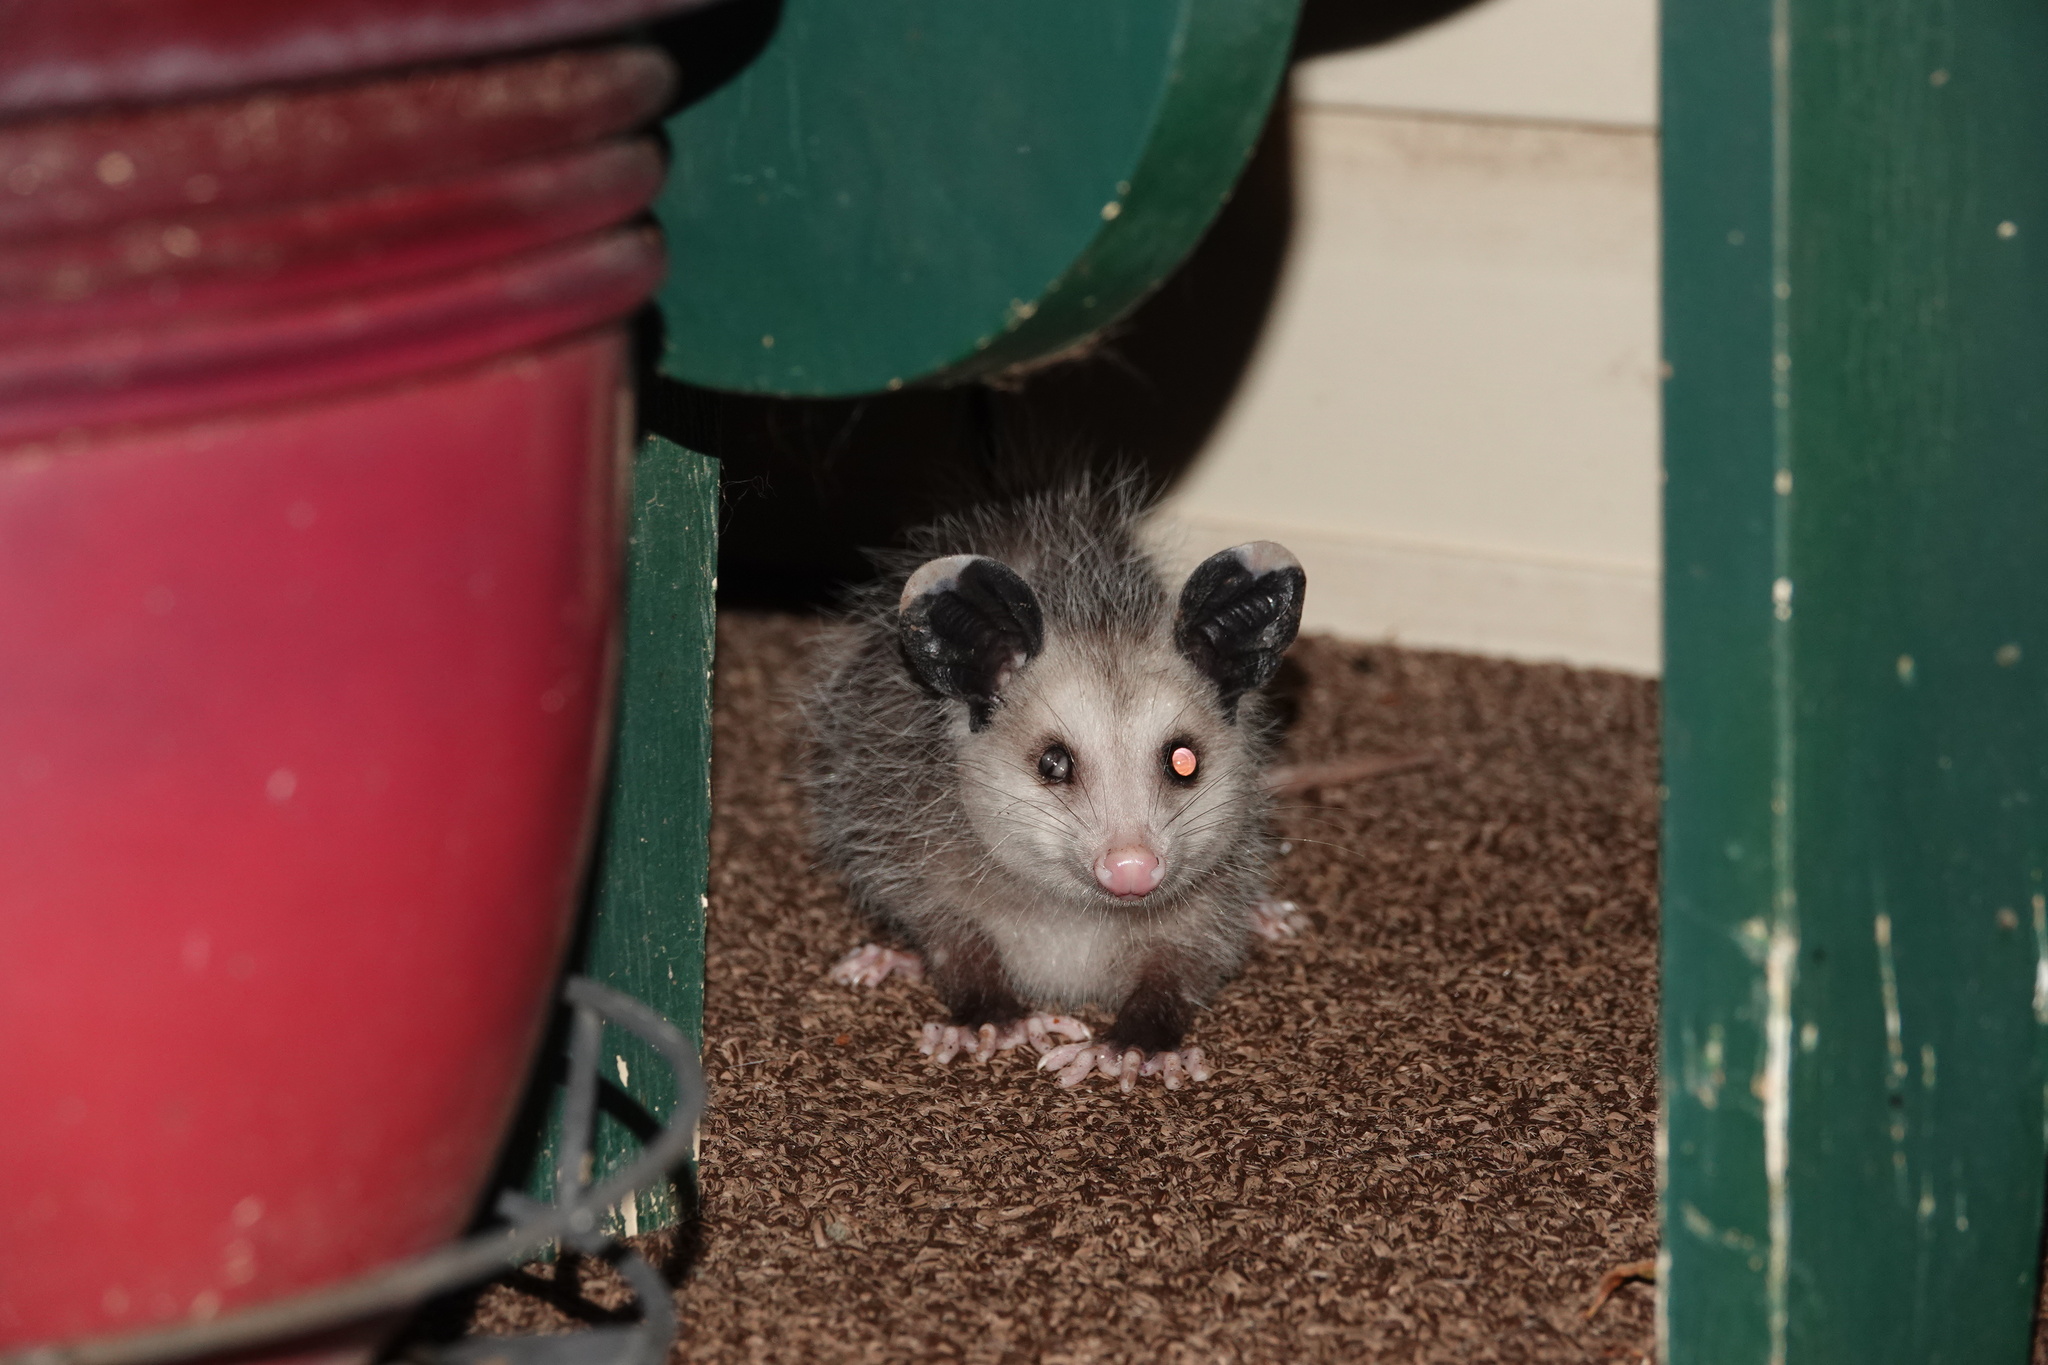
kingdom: Animalia
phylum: Chordata
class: Mammalia
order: Didelphimorphia
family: Didelphidae
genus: Didelphis
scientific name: Didelphis virginiana
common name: Virginia opossum
